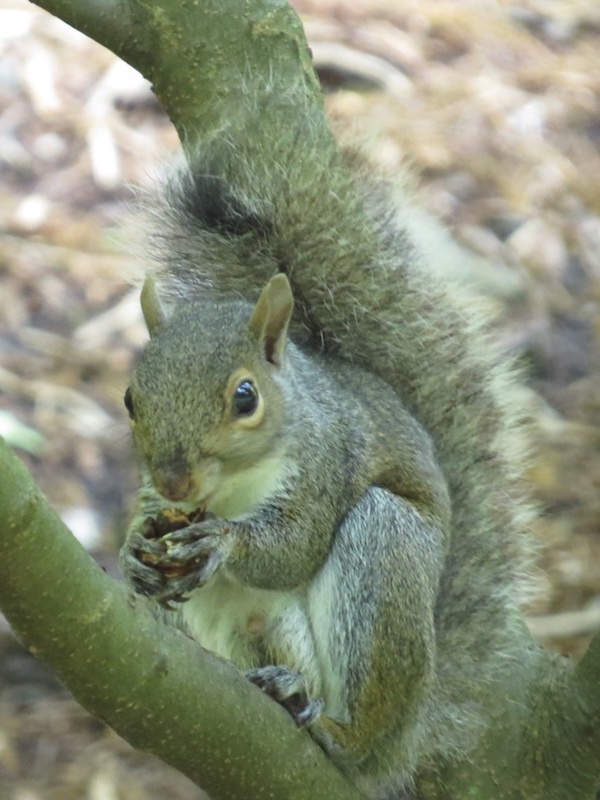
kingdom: Animalia
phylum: Chordata
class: Mammalia
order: Rodentia
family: Sciuridae
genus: Sciurus
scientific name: Sciurus carolinensis
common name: Eastern gray squirrel
